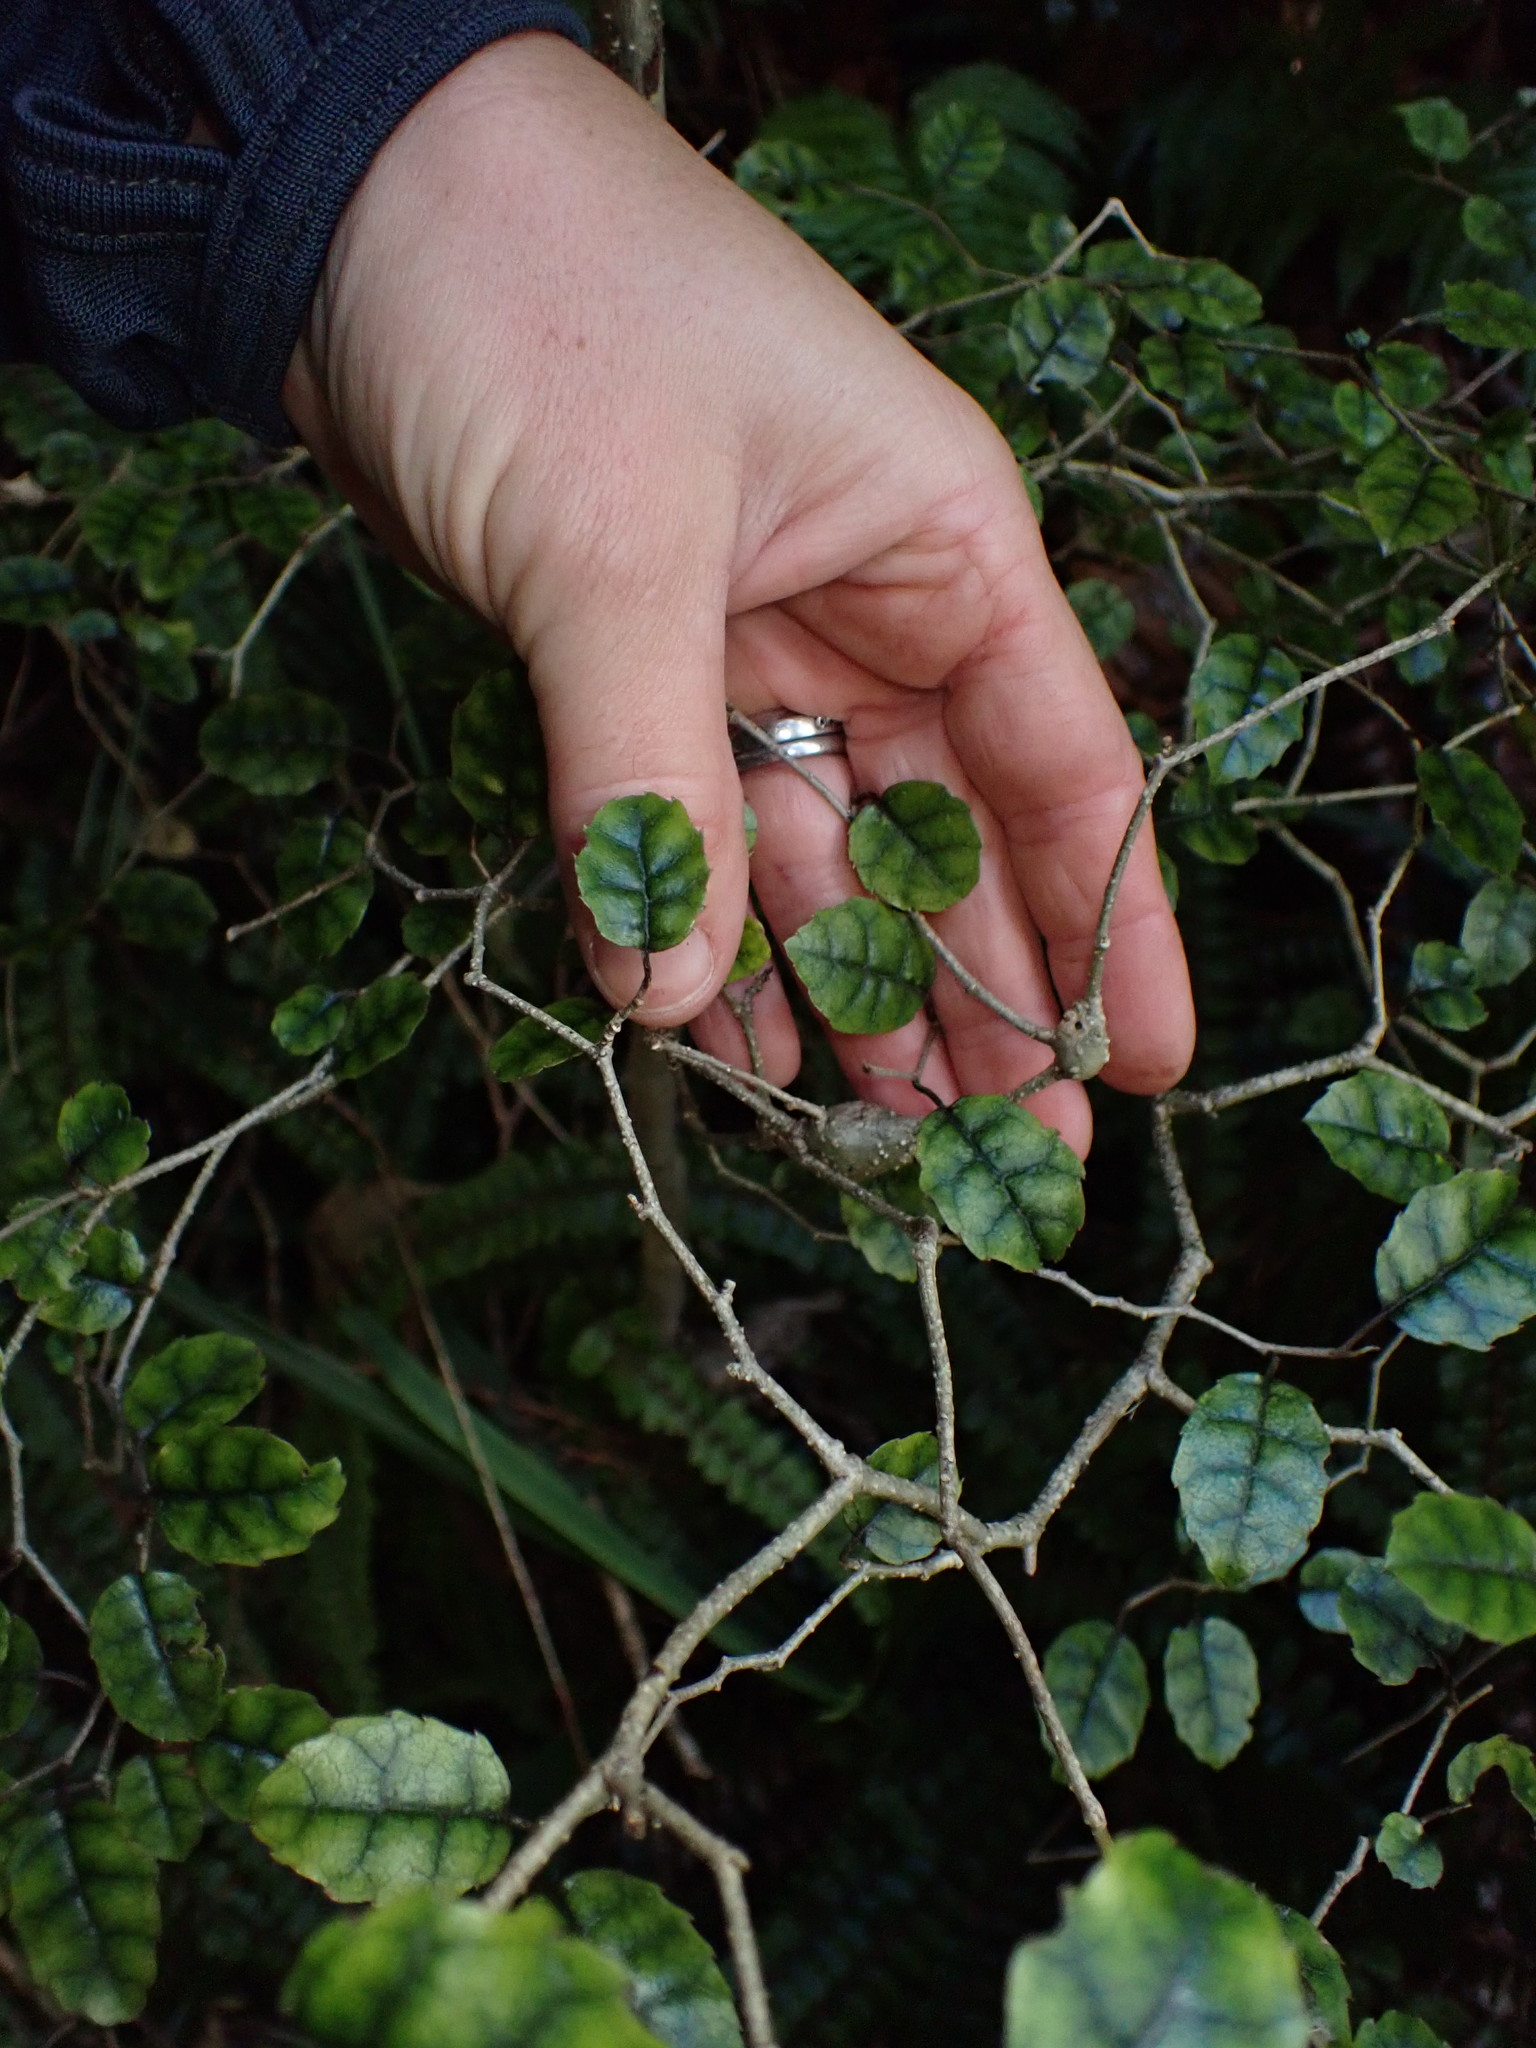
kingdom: Plantae
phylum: Tracheophyta
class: Magnoliopsida
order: Asterales
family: Rousseaceae
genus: Carpodetus
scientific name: Carpodetus serratus
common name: White mapau
